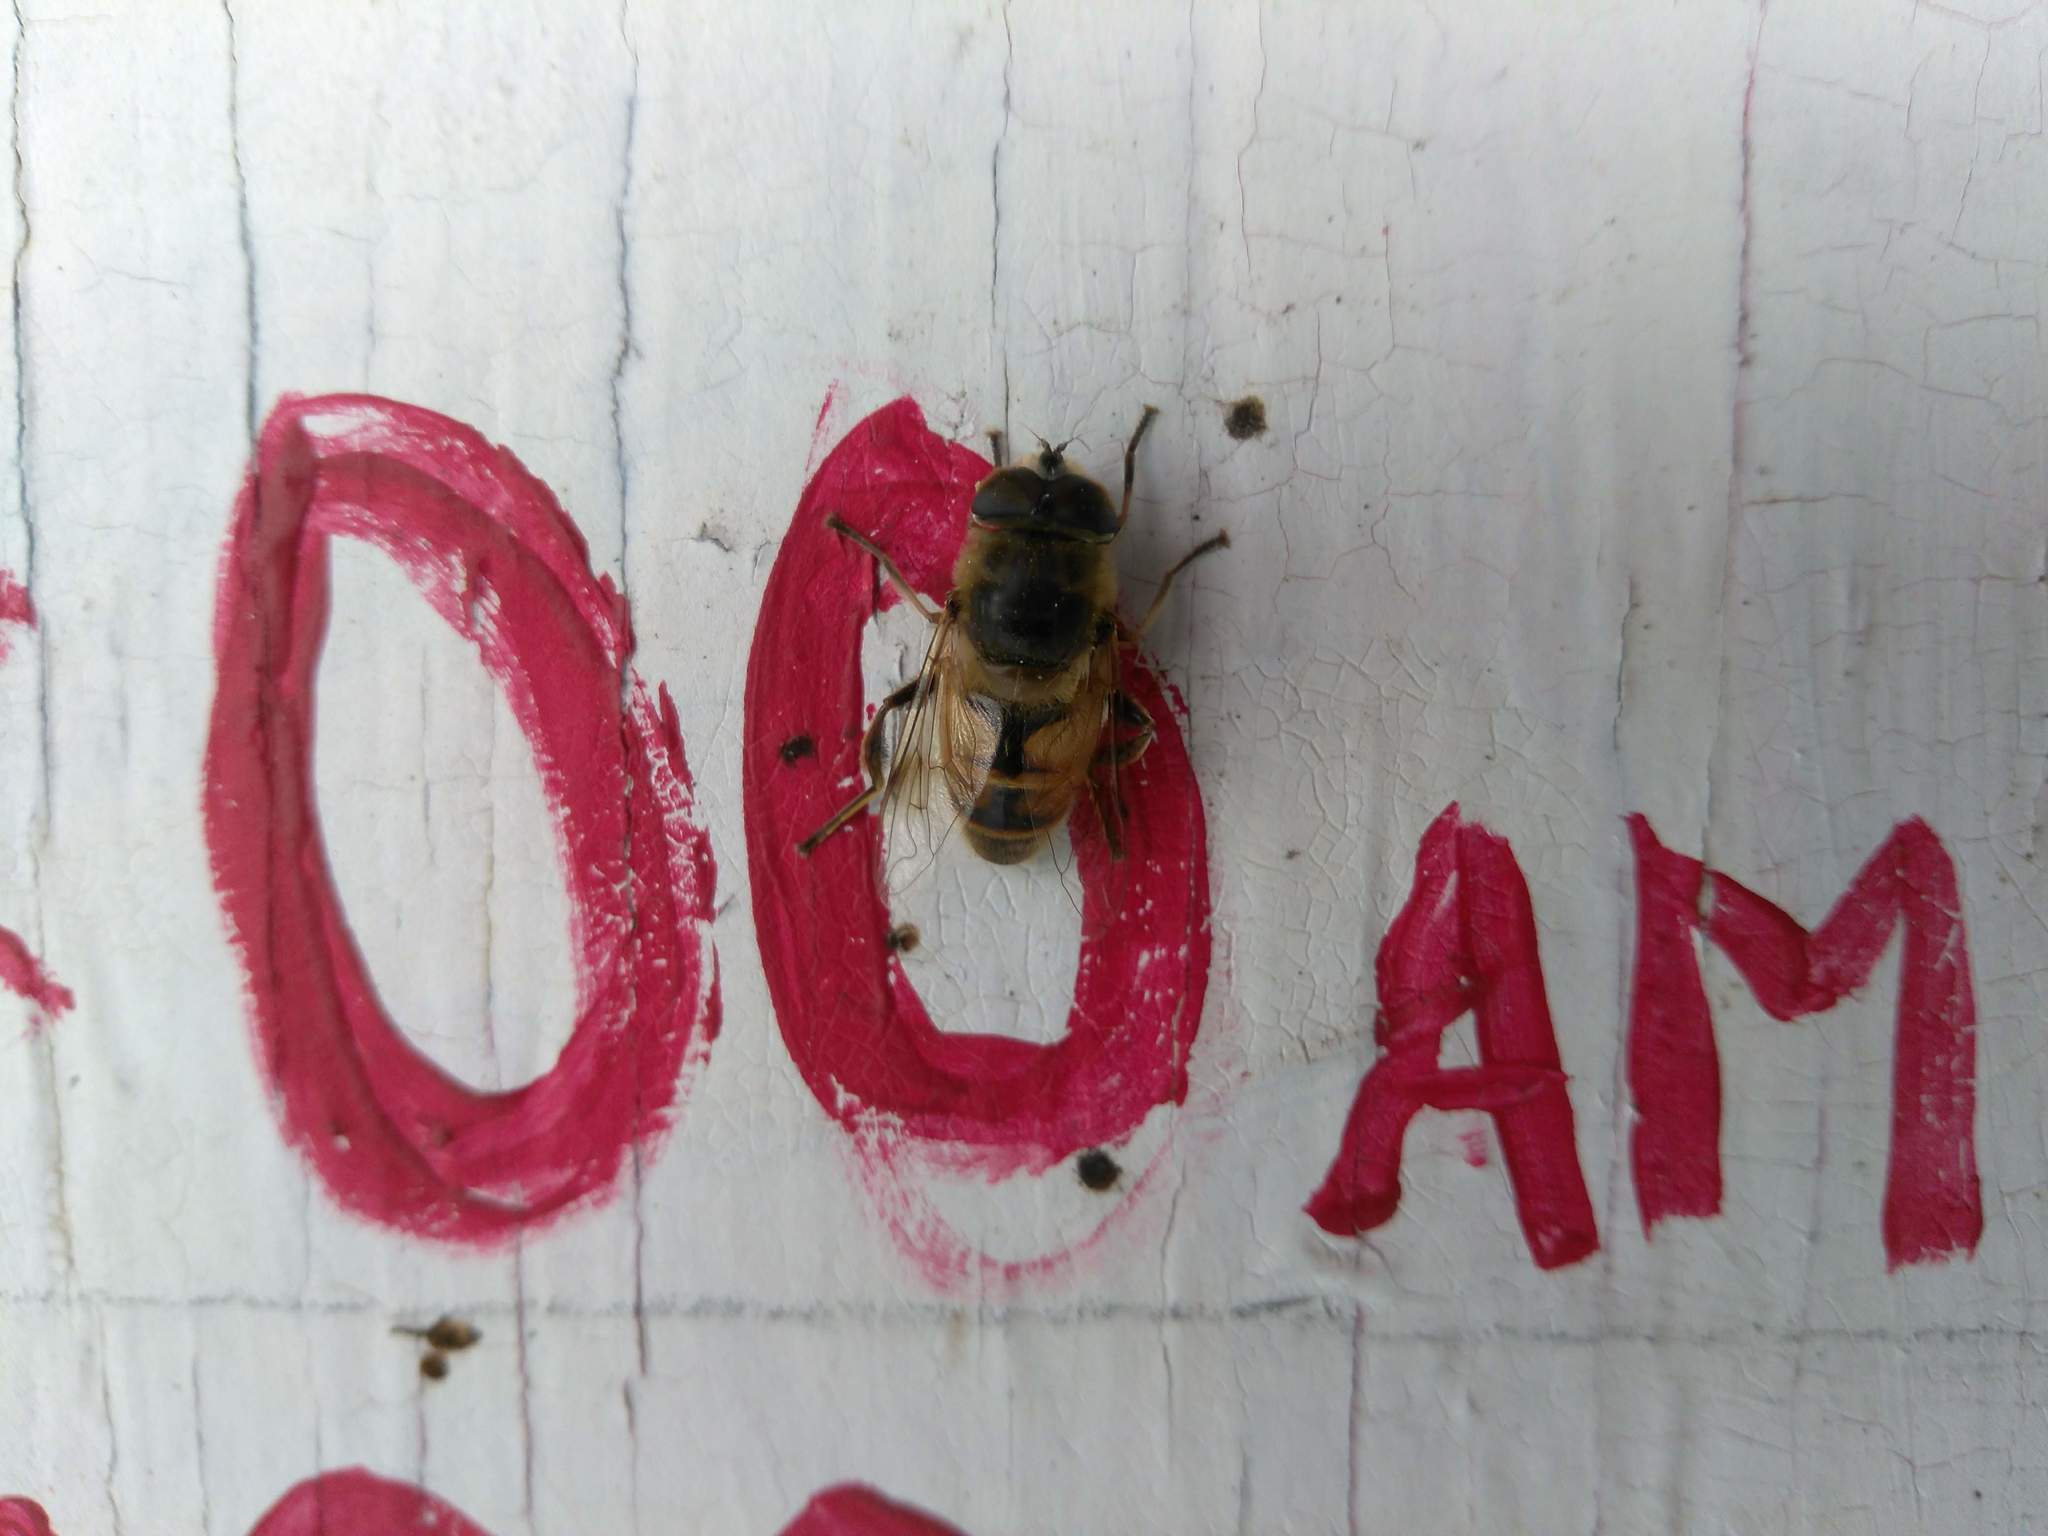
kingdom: Animalia
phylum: Arthropoda
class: Insecta
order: Diptera
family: Syrphidae
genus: Eristalis
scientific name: Eristalis tenax
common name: Drone fly
